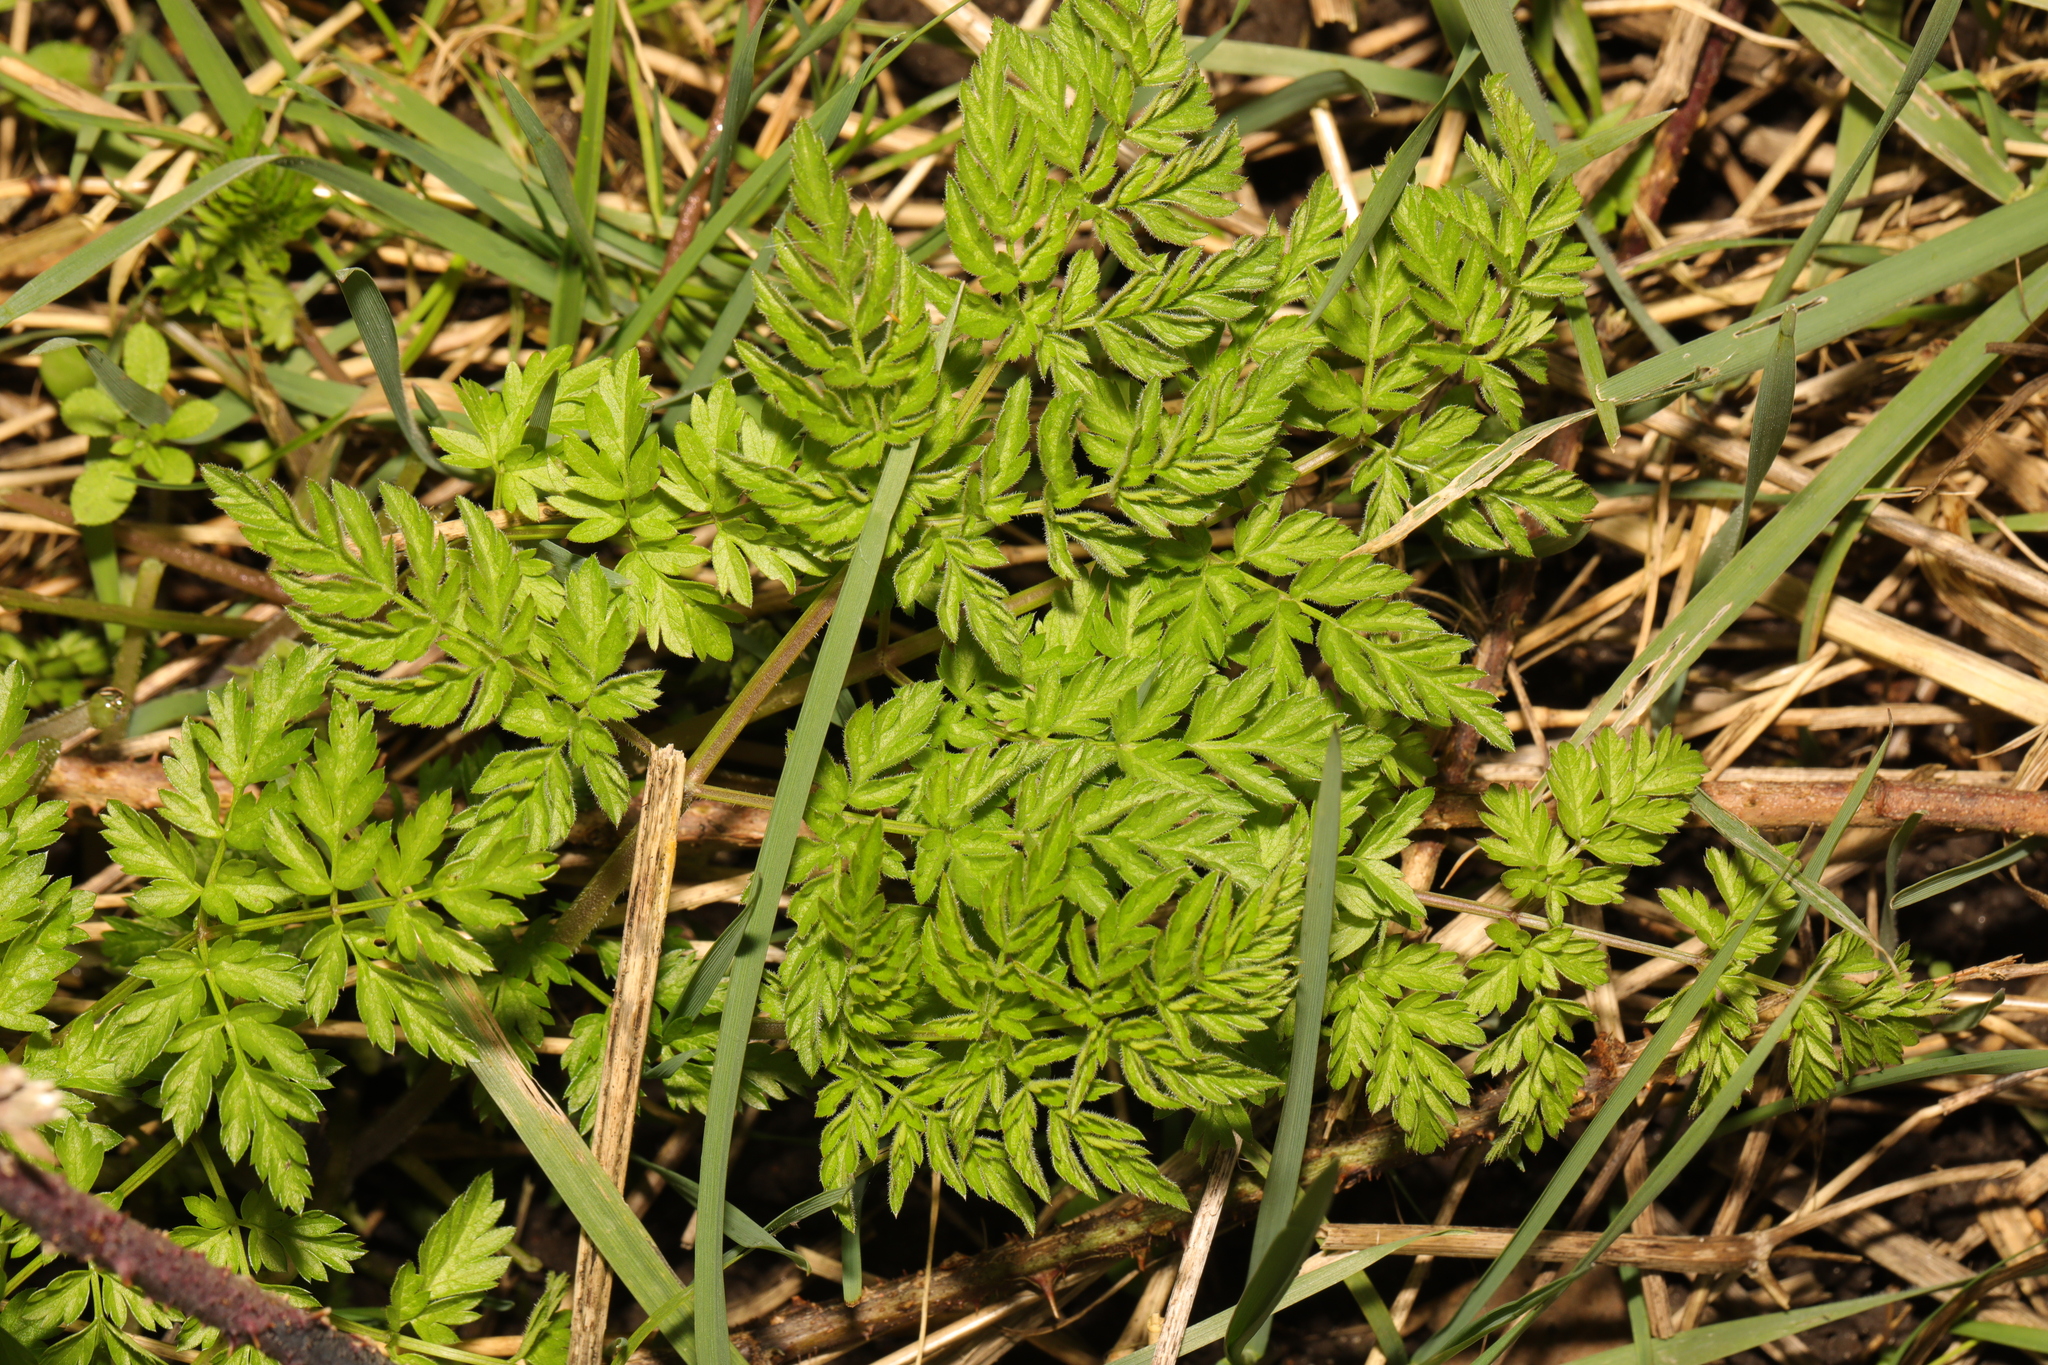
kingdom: Plantae
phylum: Tracheophyta
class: Magnoliopsida
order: Apiales
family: Apiaceae
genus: Anthriscus
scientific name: Anthriscus sylvestris
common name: Cow parsley
